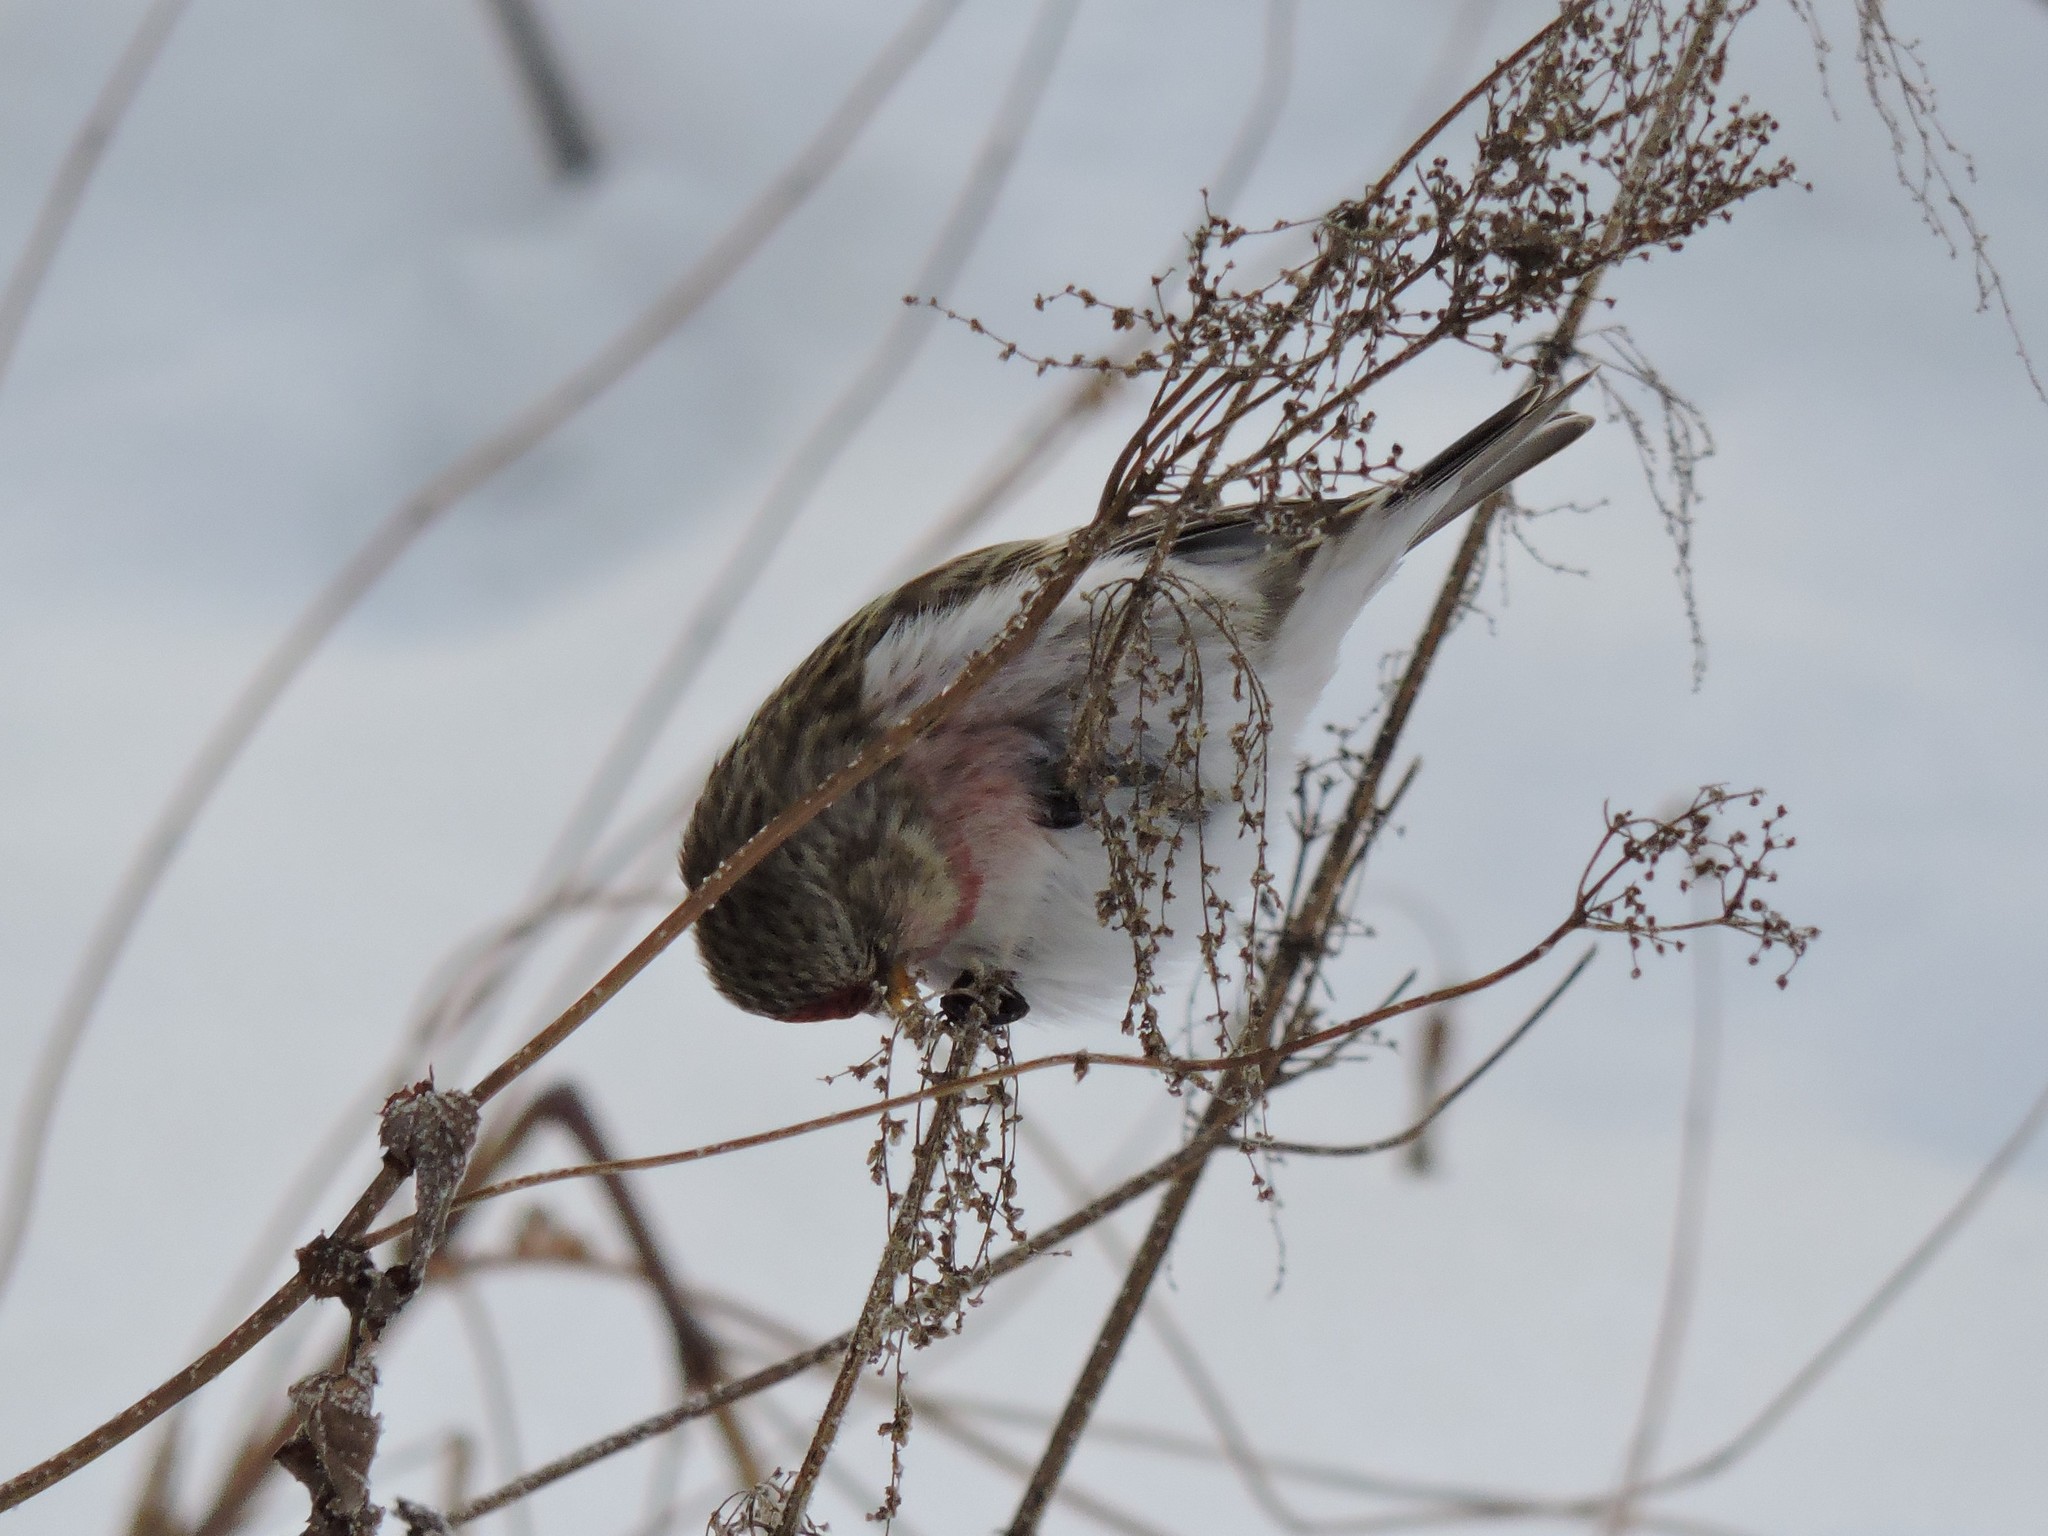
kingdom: Animalia
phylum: Chordata
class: Aves
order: Passeriformes
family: Fringillidae
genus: Acanthis
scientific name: Acanthis flammea
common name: Common redpoll
